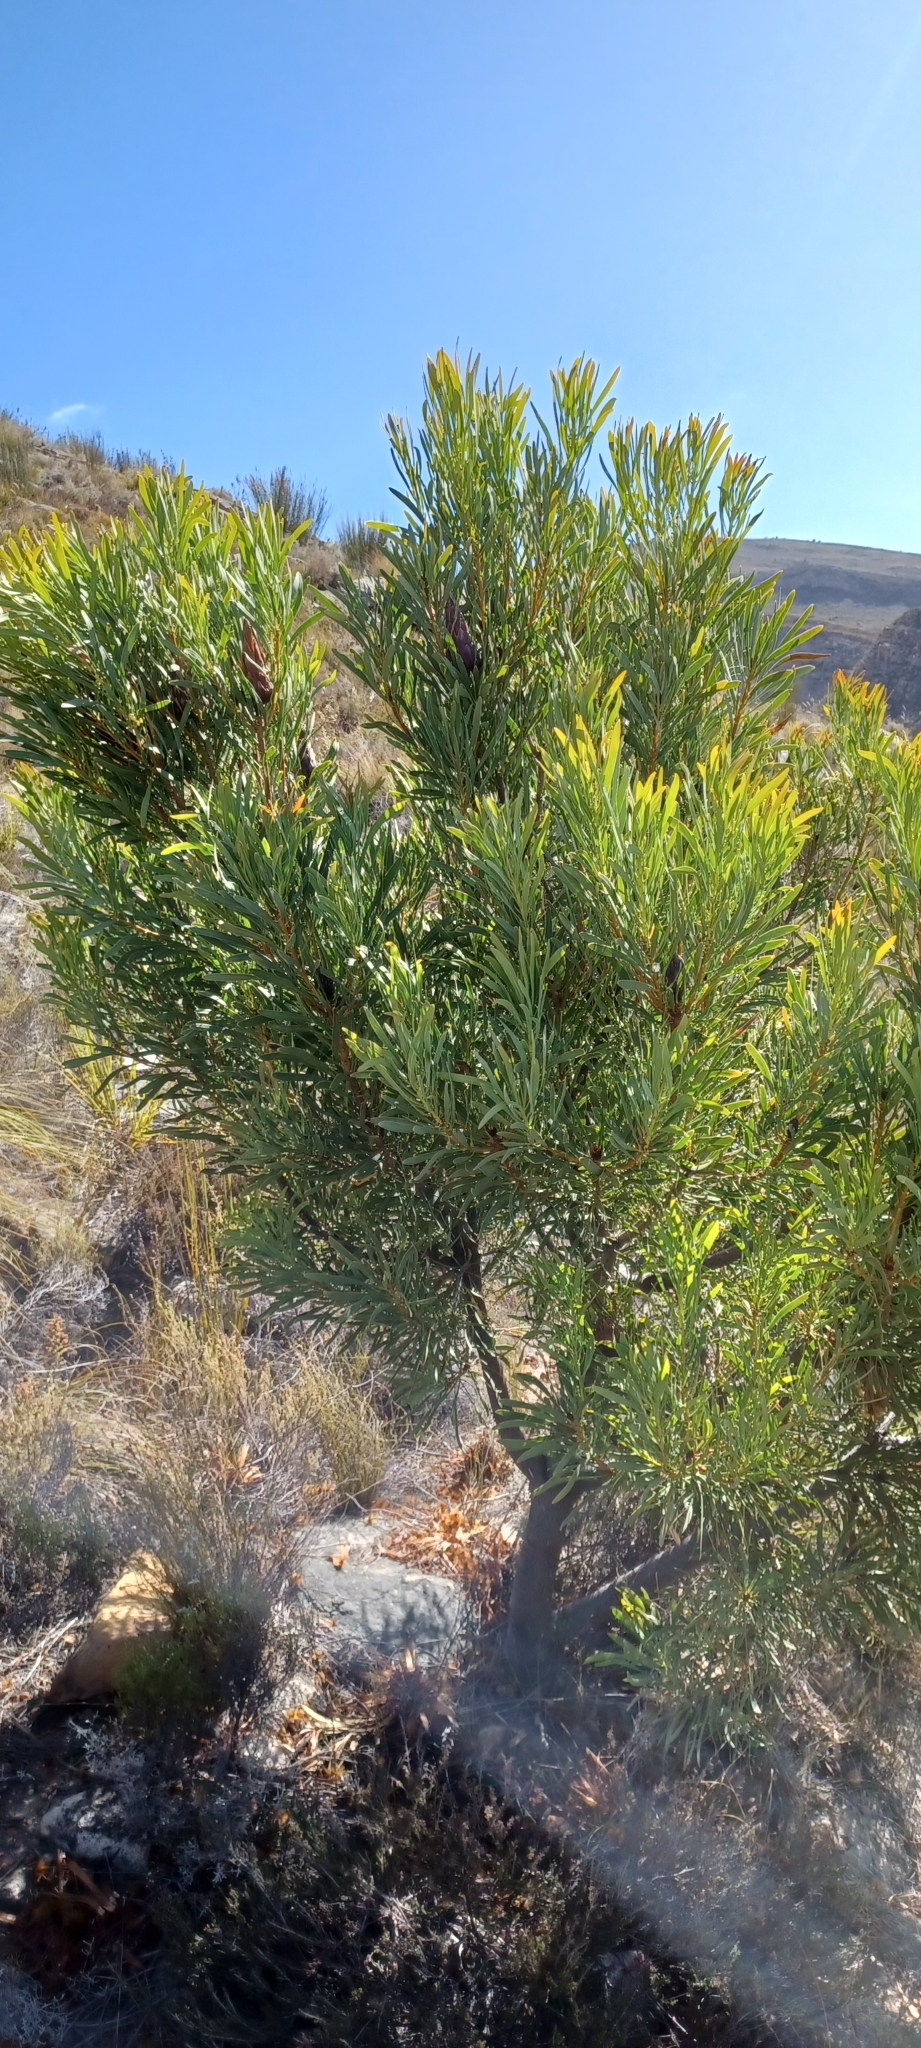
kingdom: Plantae
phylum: Tracheophyta
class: Magnoliopsida
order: Proteales
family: Proteaceae
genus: Protea
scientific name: Protea repens
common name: Sugarbush
